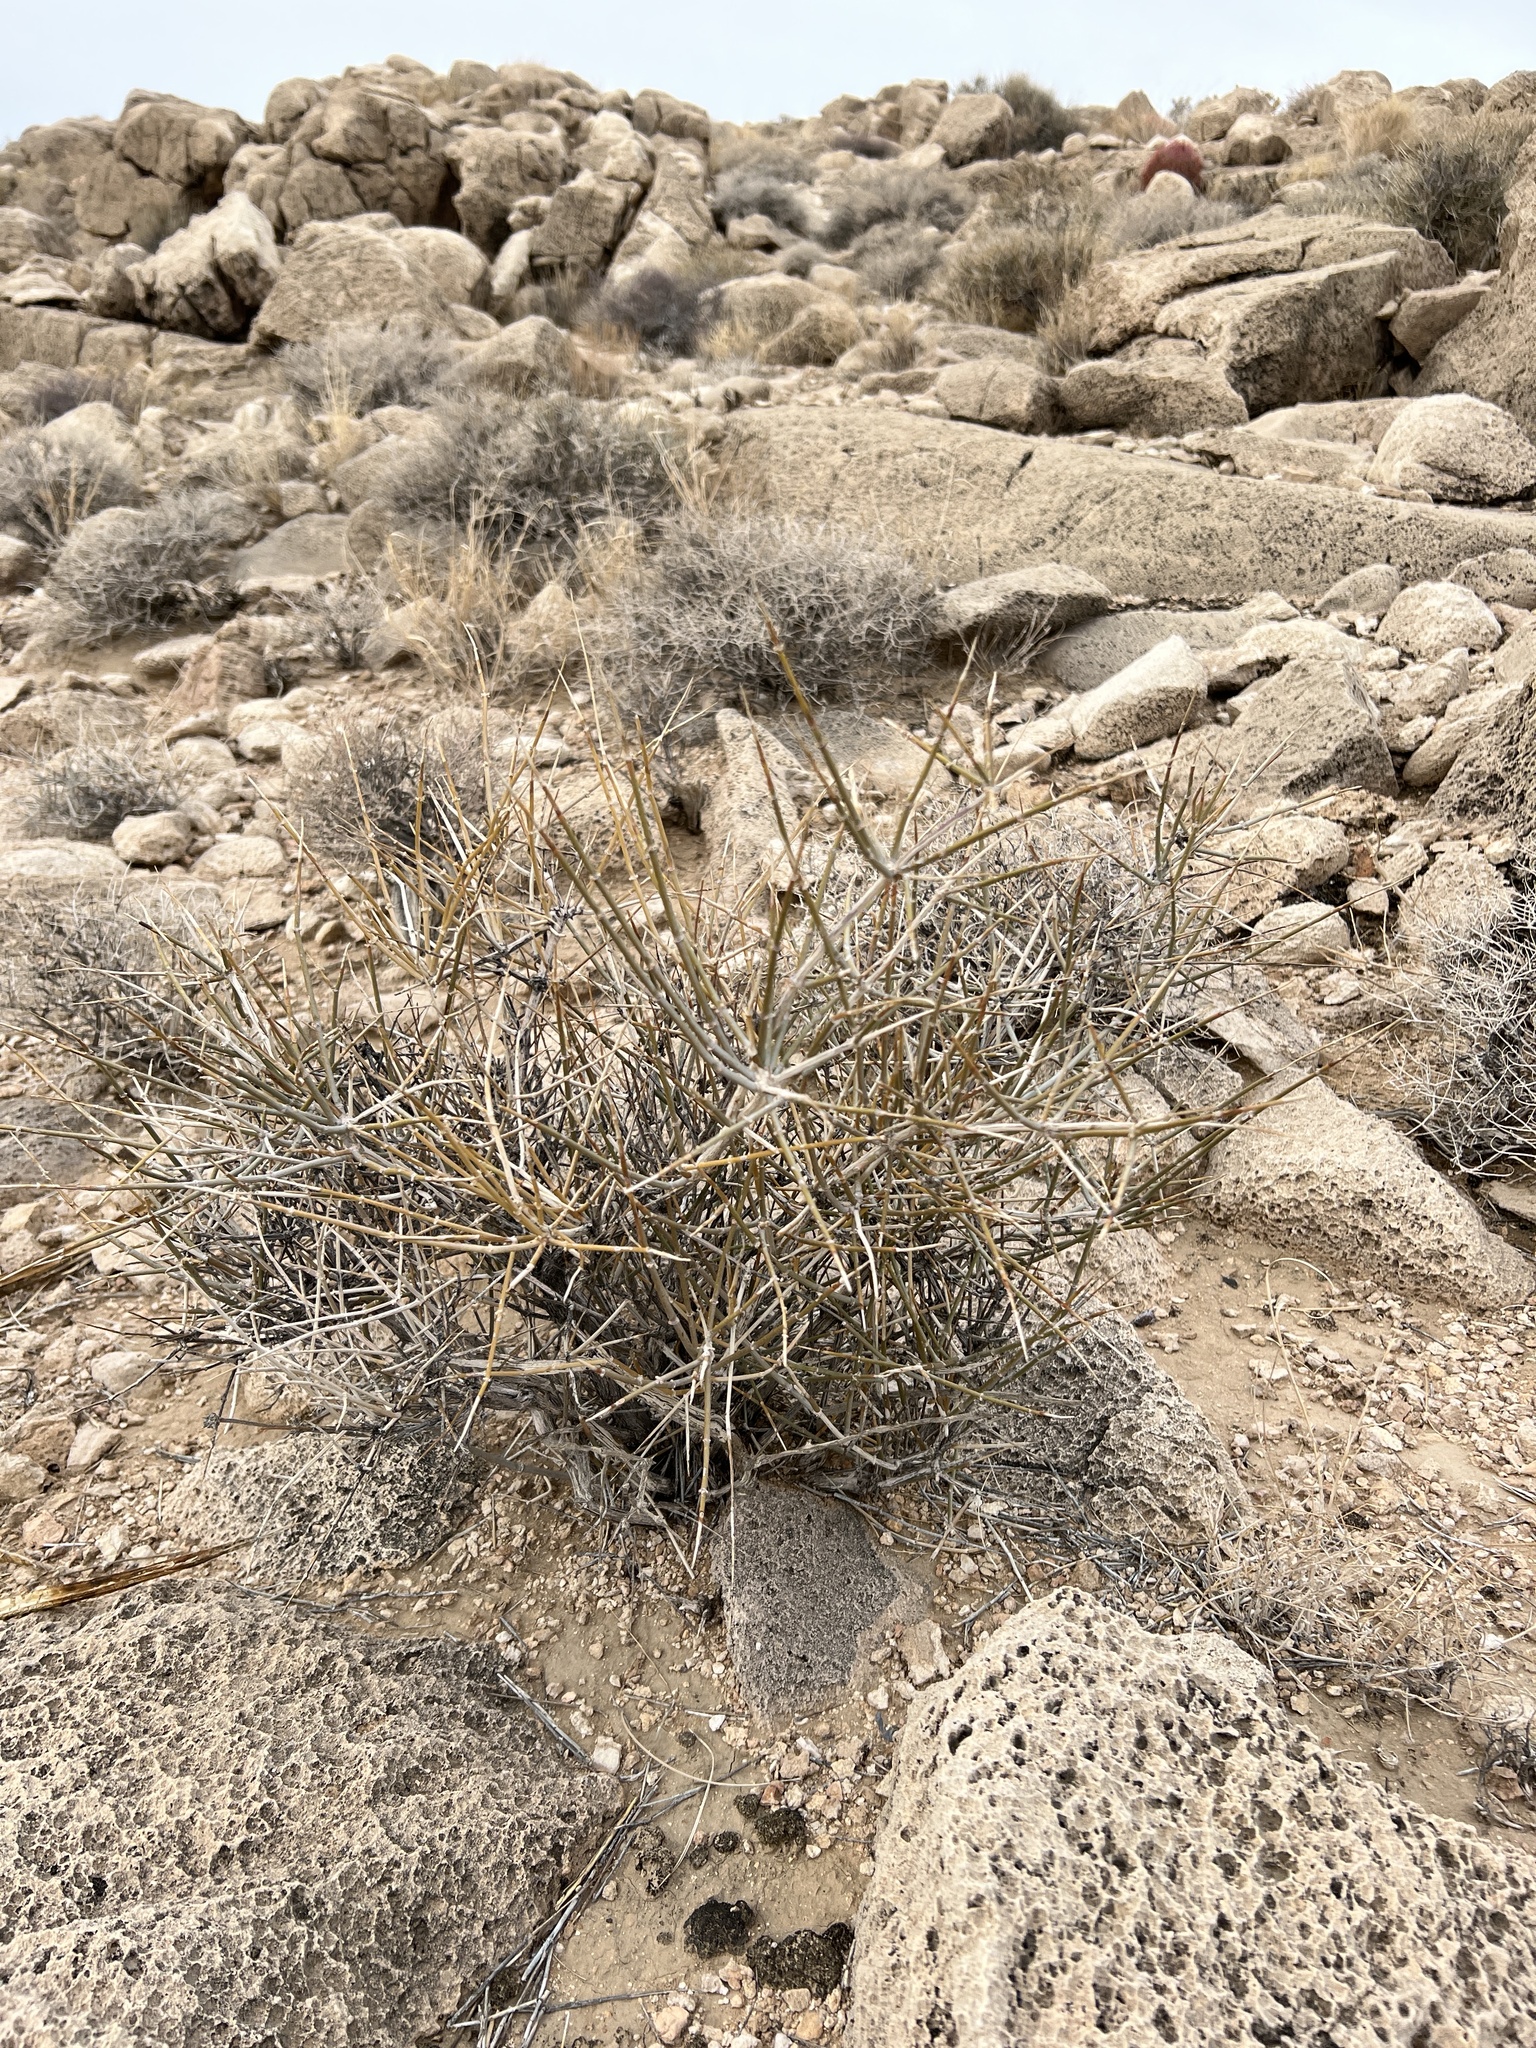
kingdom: Plantae
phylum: Tracheophyta
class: Gnetopsida
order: Ephedrales
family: Ephedraceae
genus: Ephedra
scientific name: Ephedra nevadensis
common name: Gray ephedra
